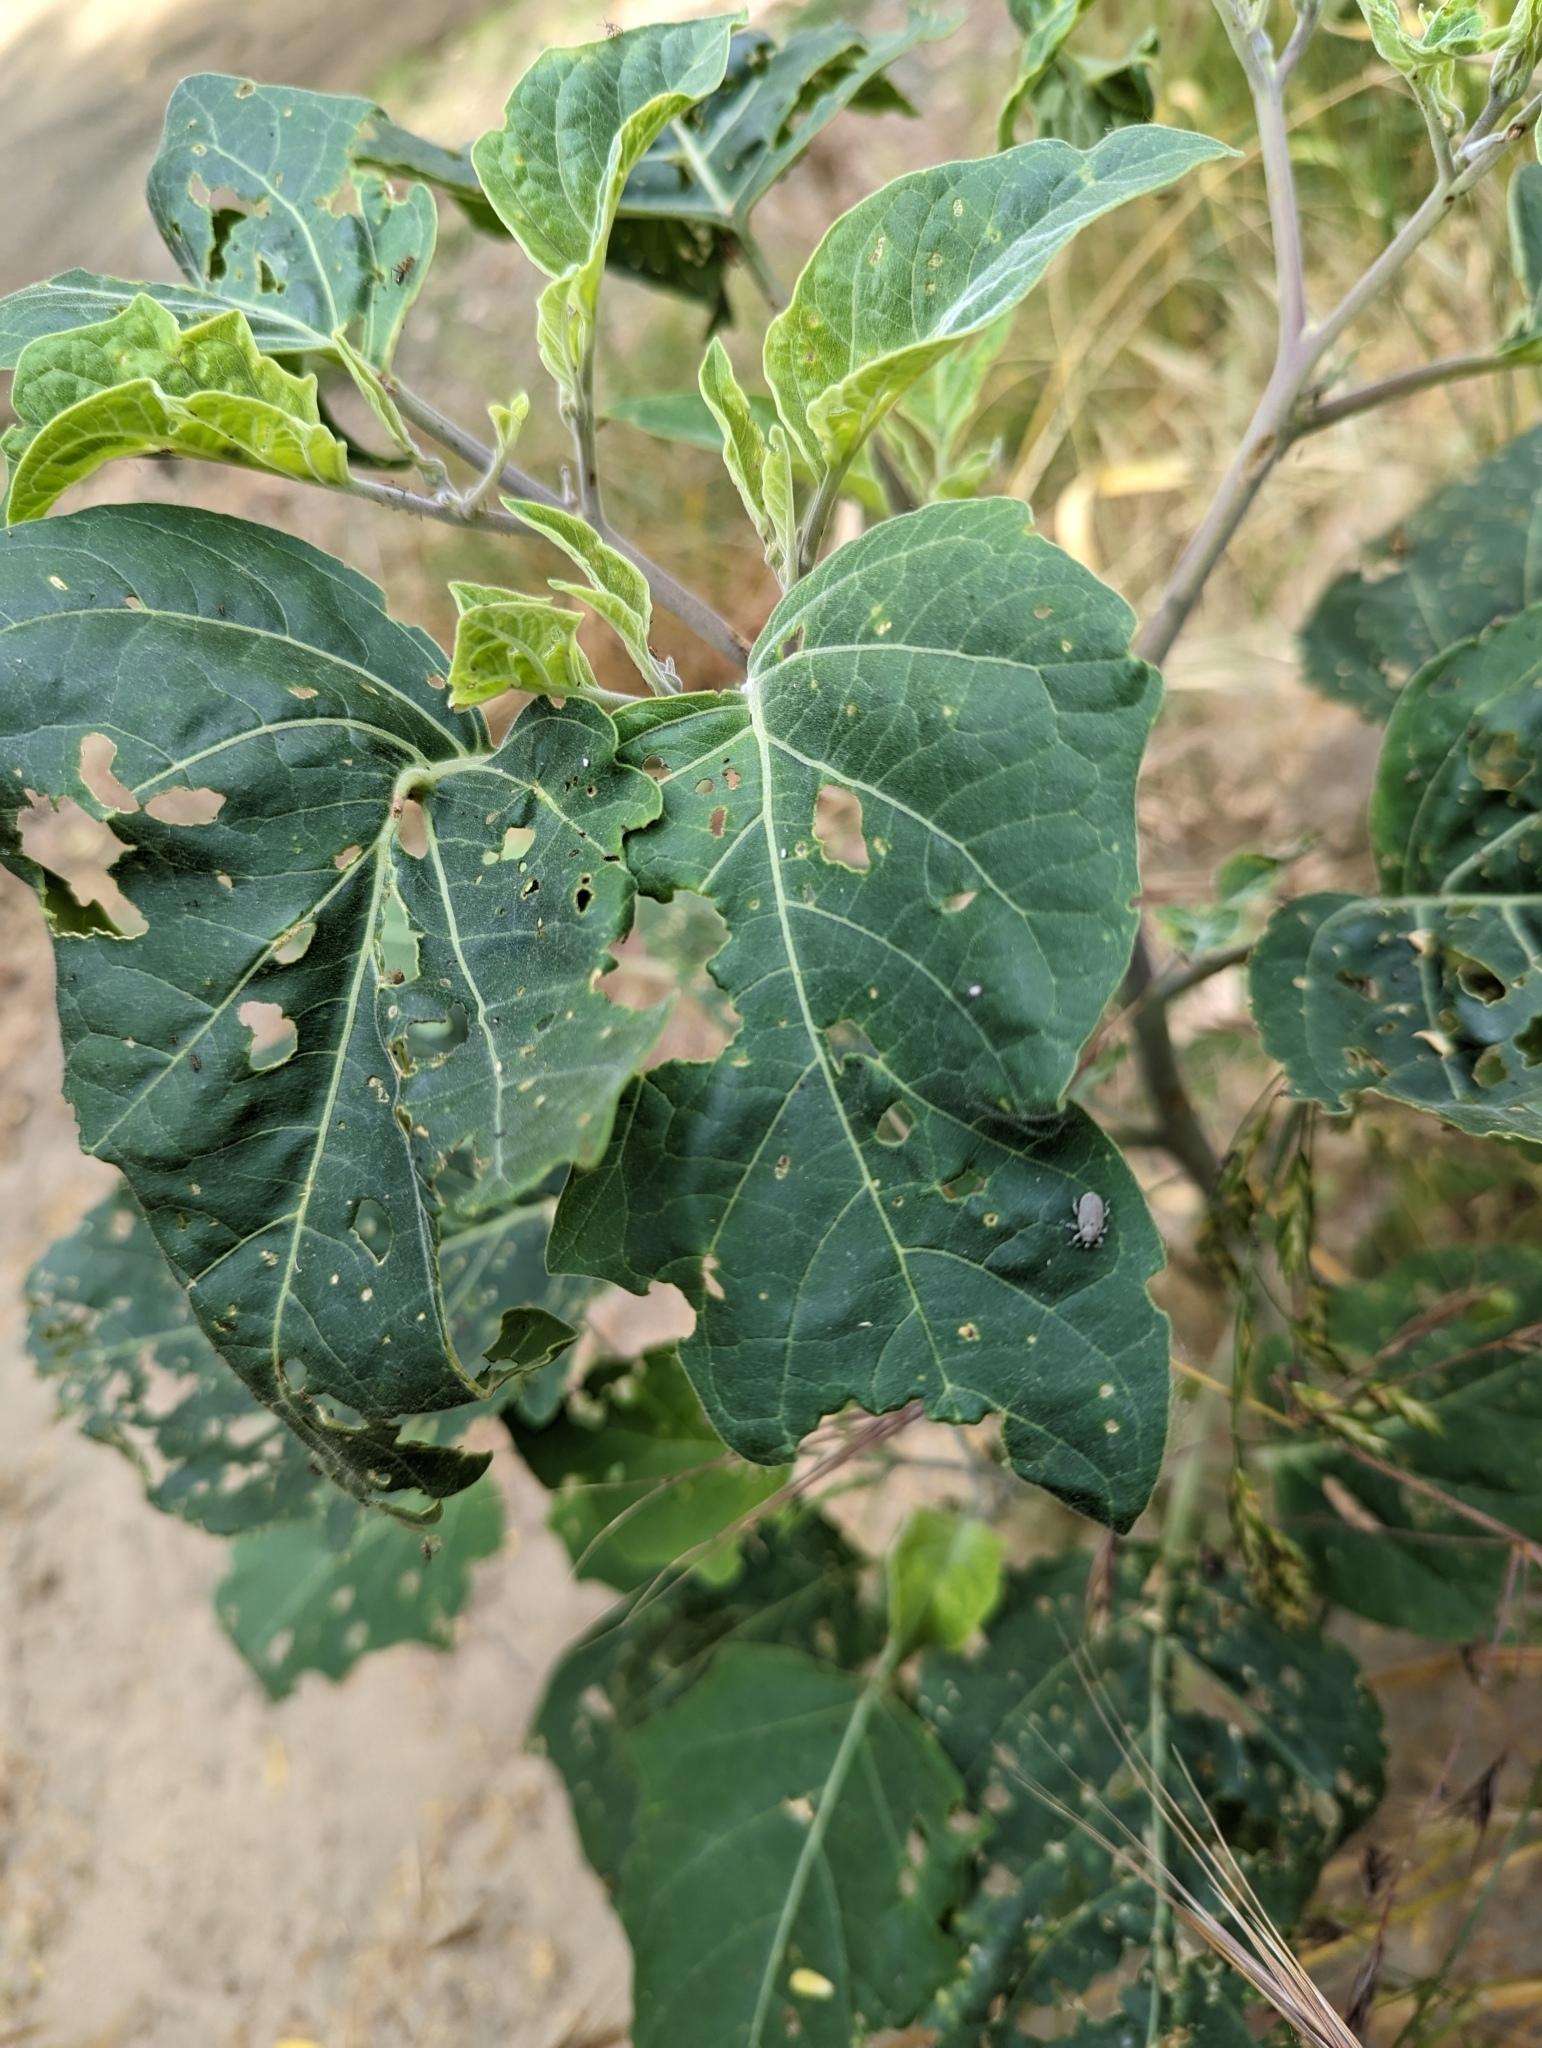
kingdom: Animalia
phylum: Arthropoda
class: Insecta
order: Coleoptera
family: Curculionidae
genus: Trichobaris
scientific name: Trichobaris compacta
